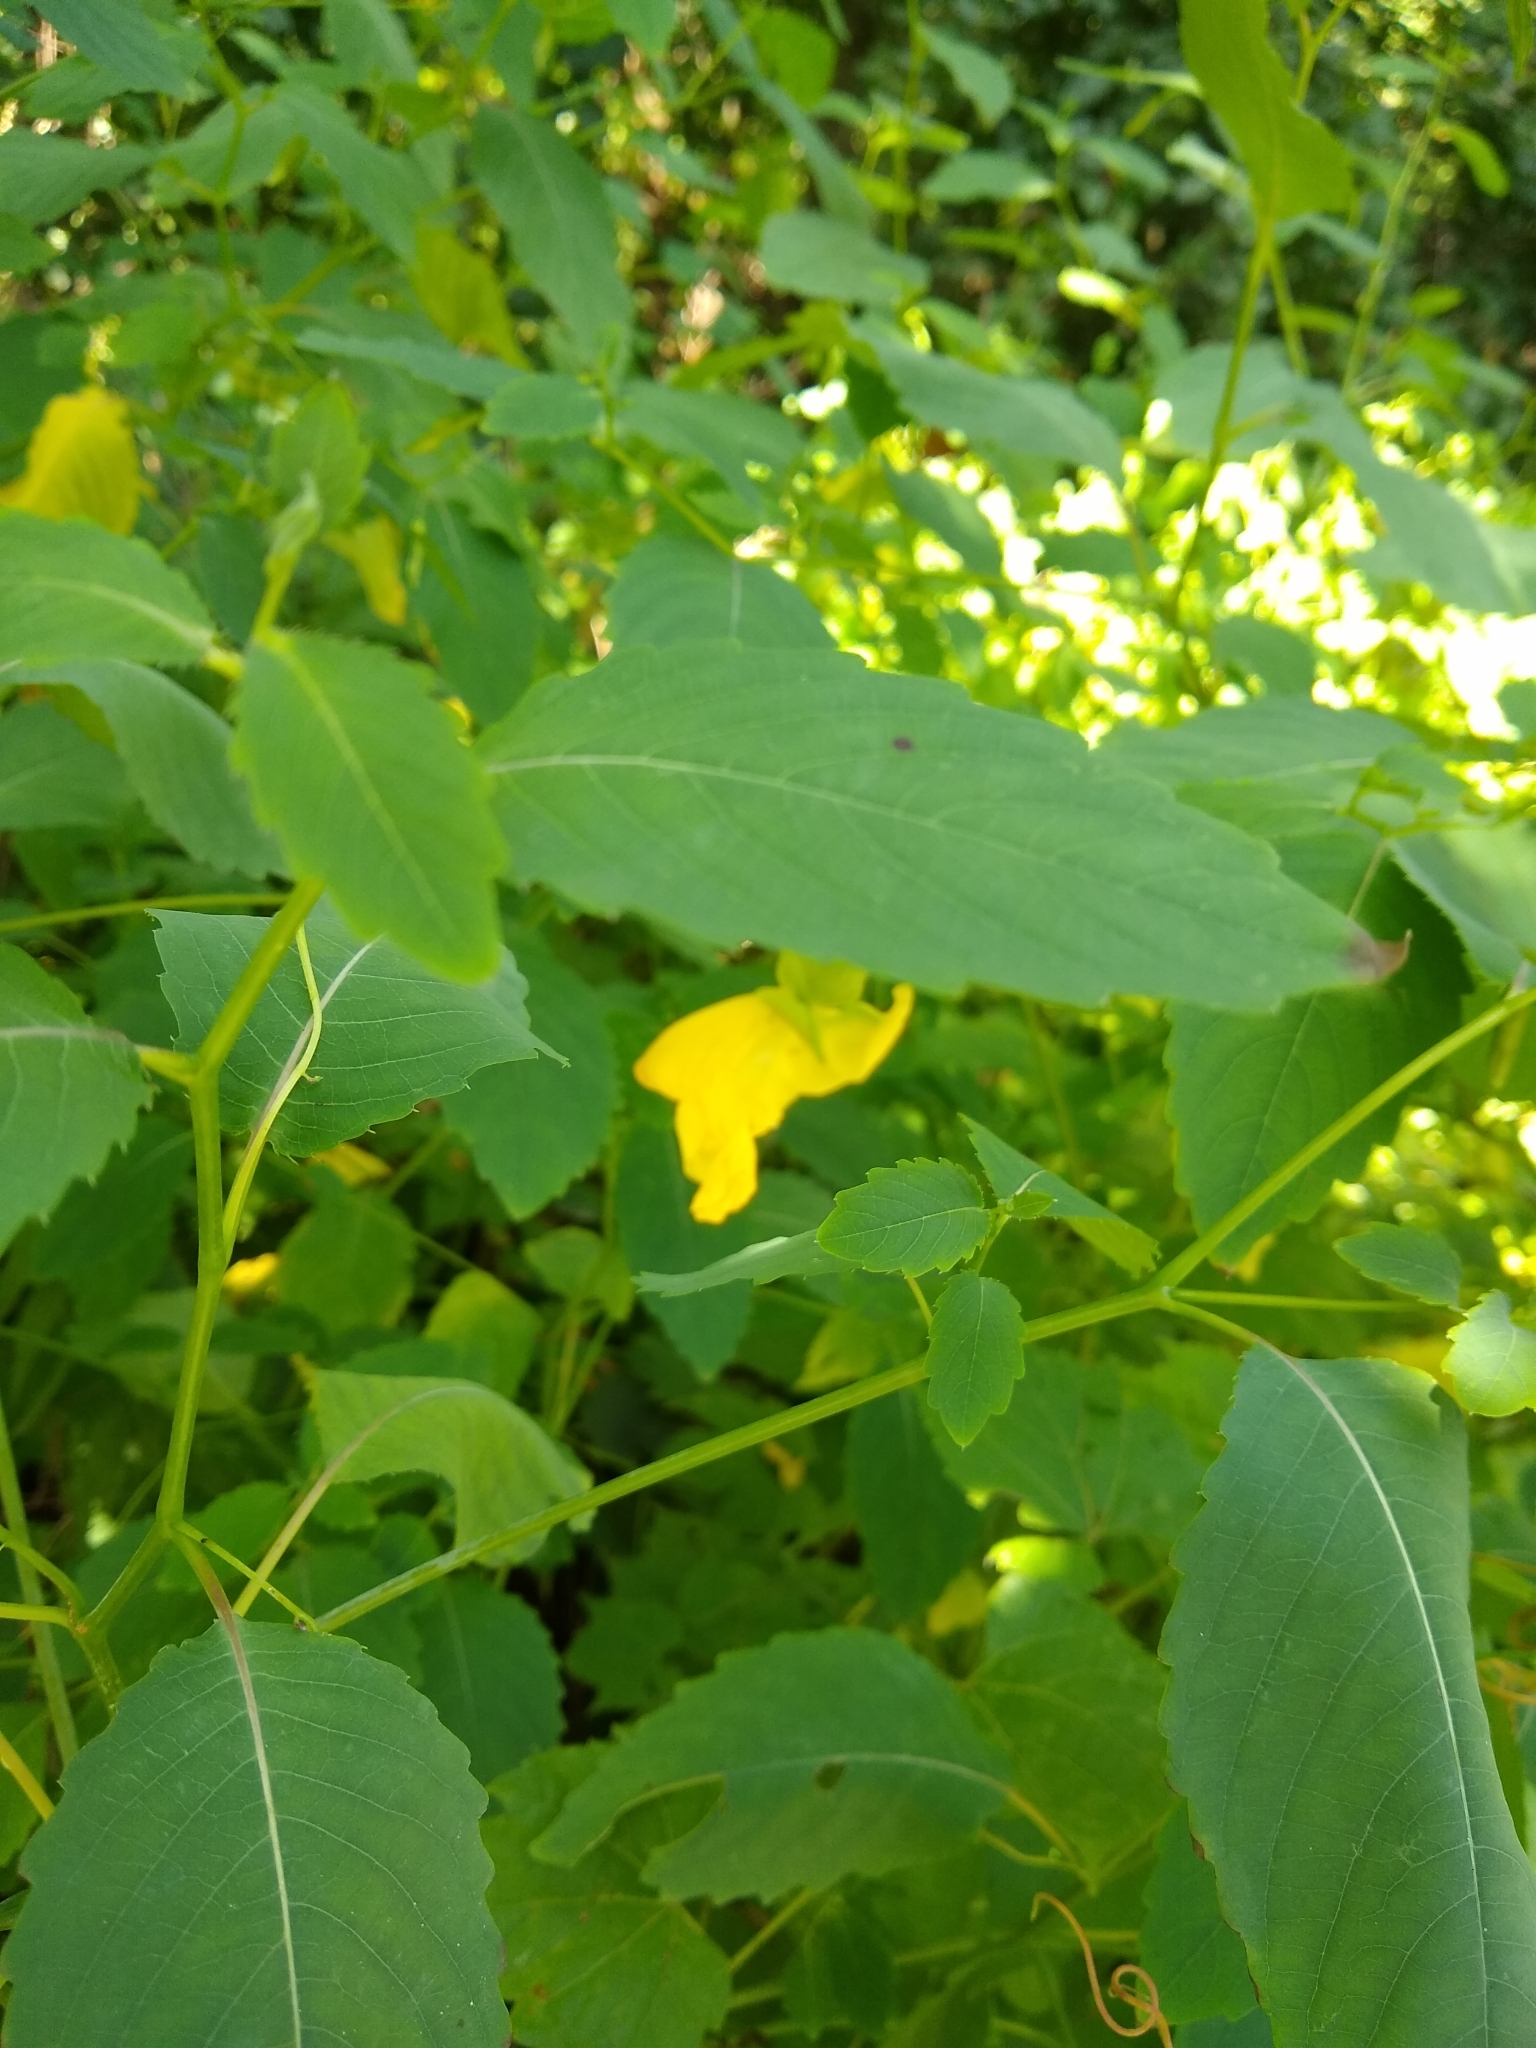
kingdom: Plantae
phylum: Tracheophyta
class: Magnoliopsida
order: Ericales
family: Balsaminaceae
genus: Impatiens
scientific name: Impatiens pallida
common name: Pale snapweed
